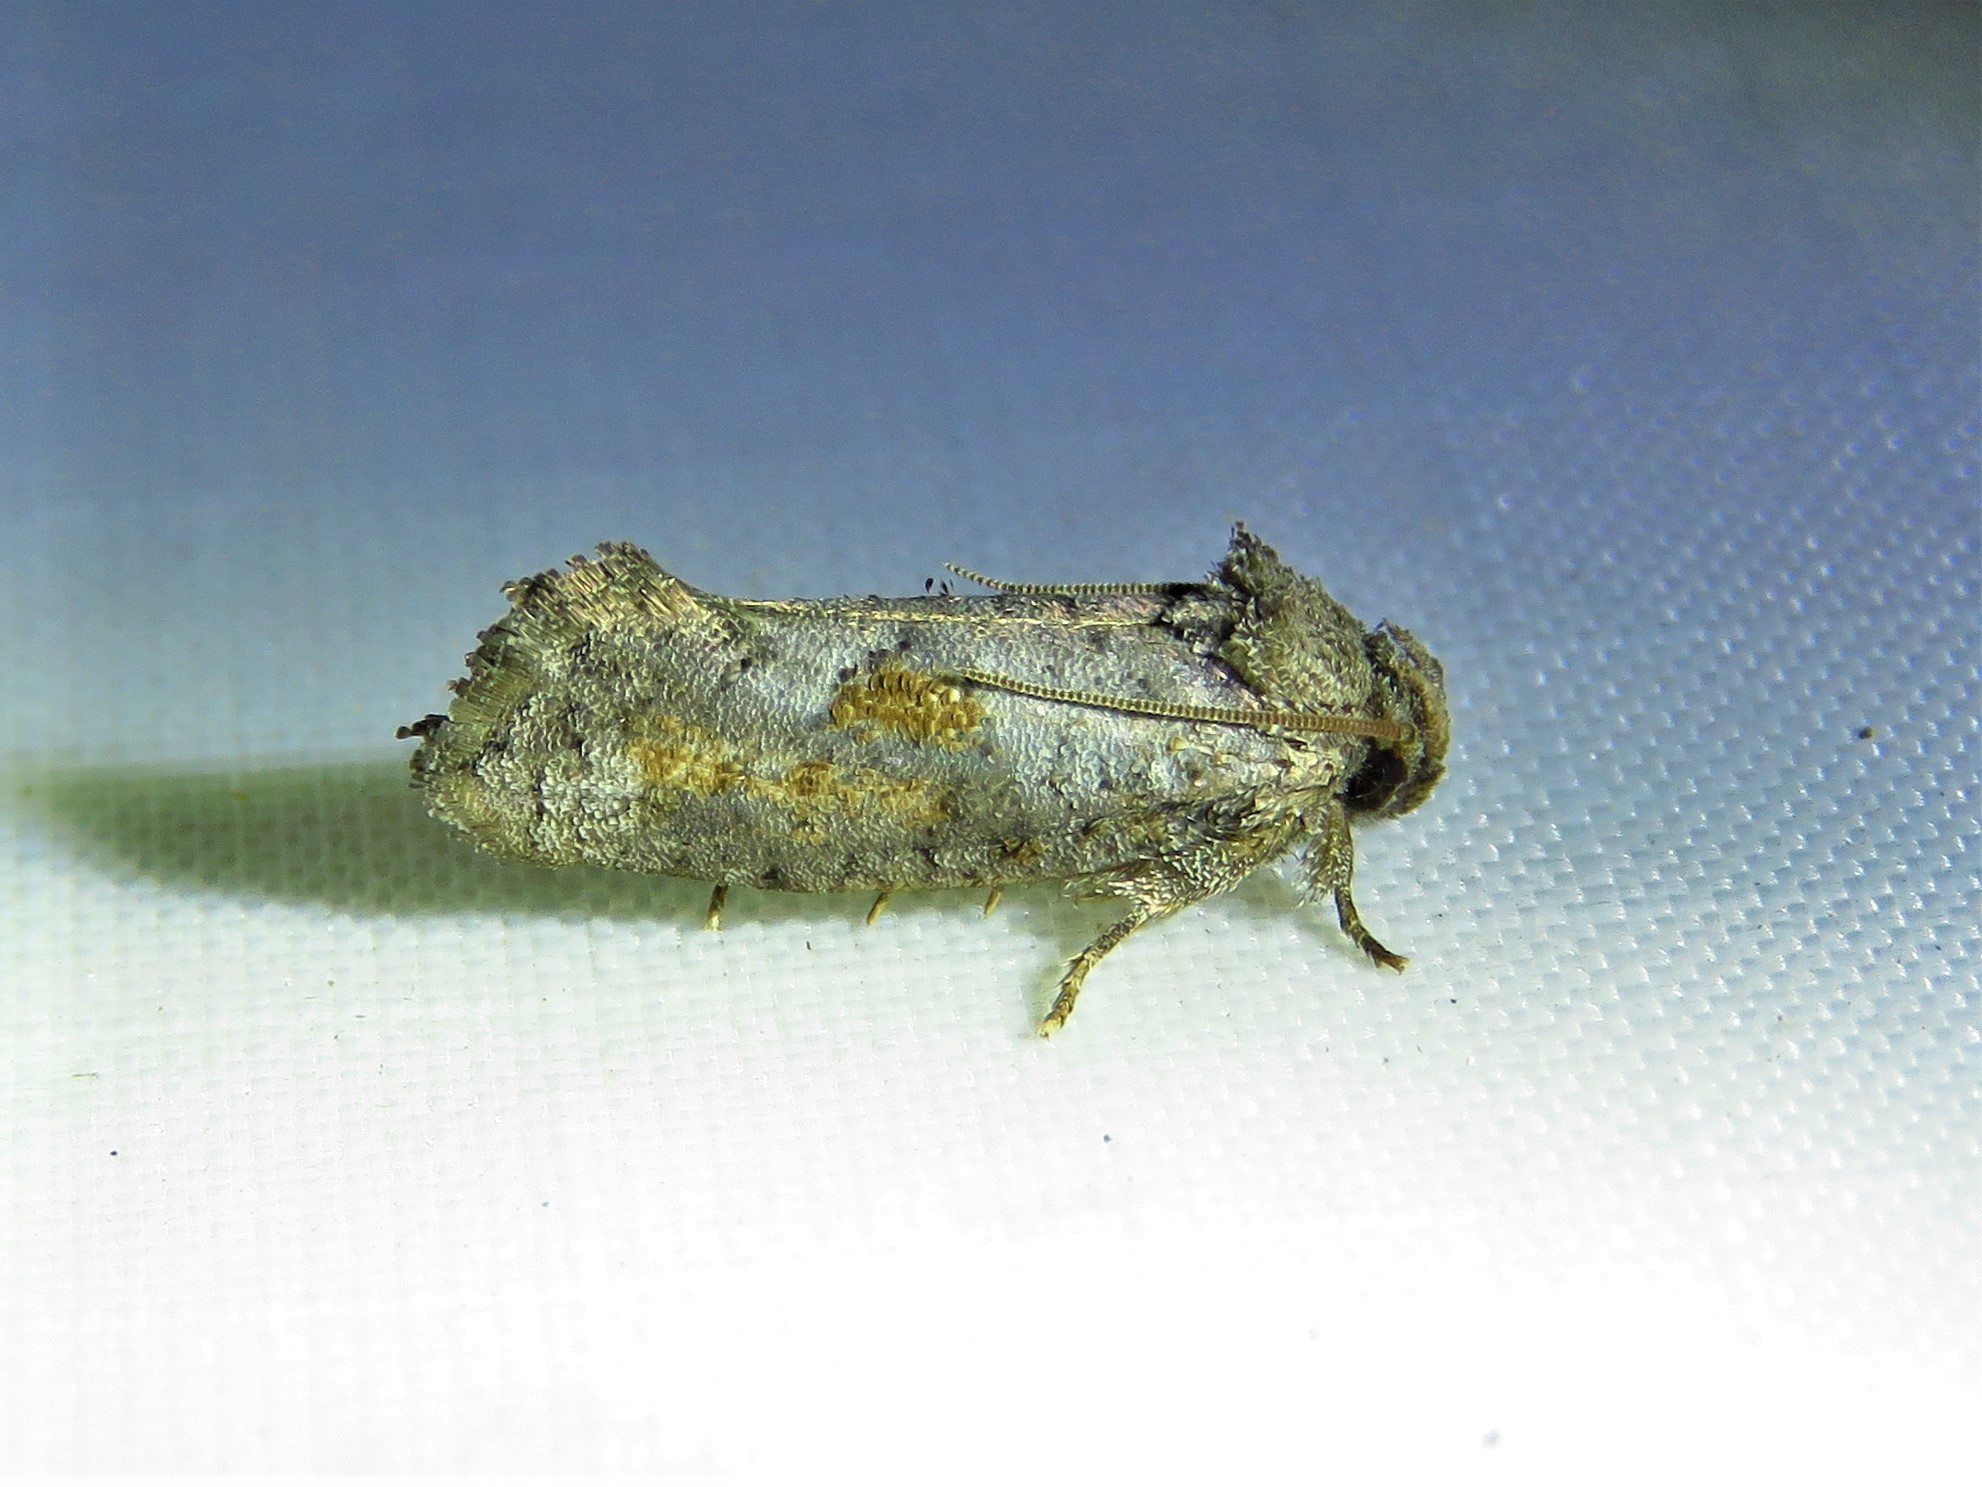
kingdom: Animalia
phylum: Arthropoda
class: Insecta
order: Lepidoptera
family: Tineidae
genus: Acrolophus
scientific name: Acrolophus piger
